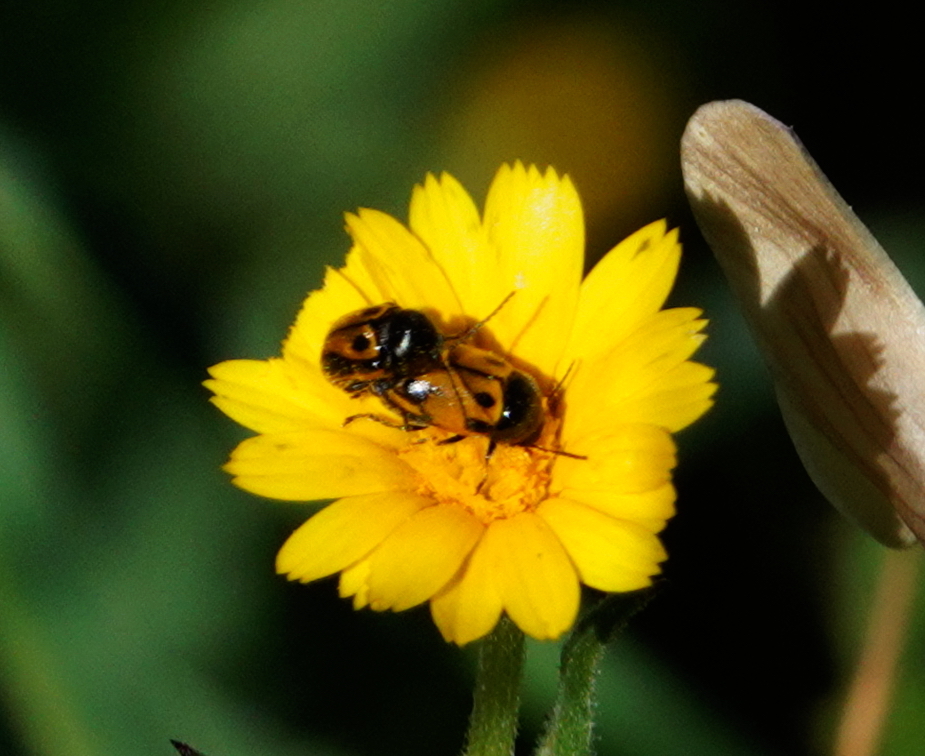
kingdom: Animalia
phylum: Arthropoda
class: Insecta
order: Coleoptera
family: Chrysomelidae
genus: Cryptocephalus
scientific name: Cryptocephalus rugicollis
